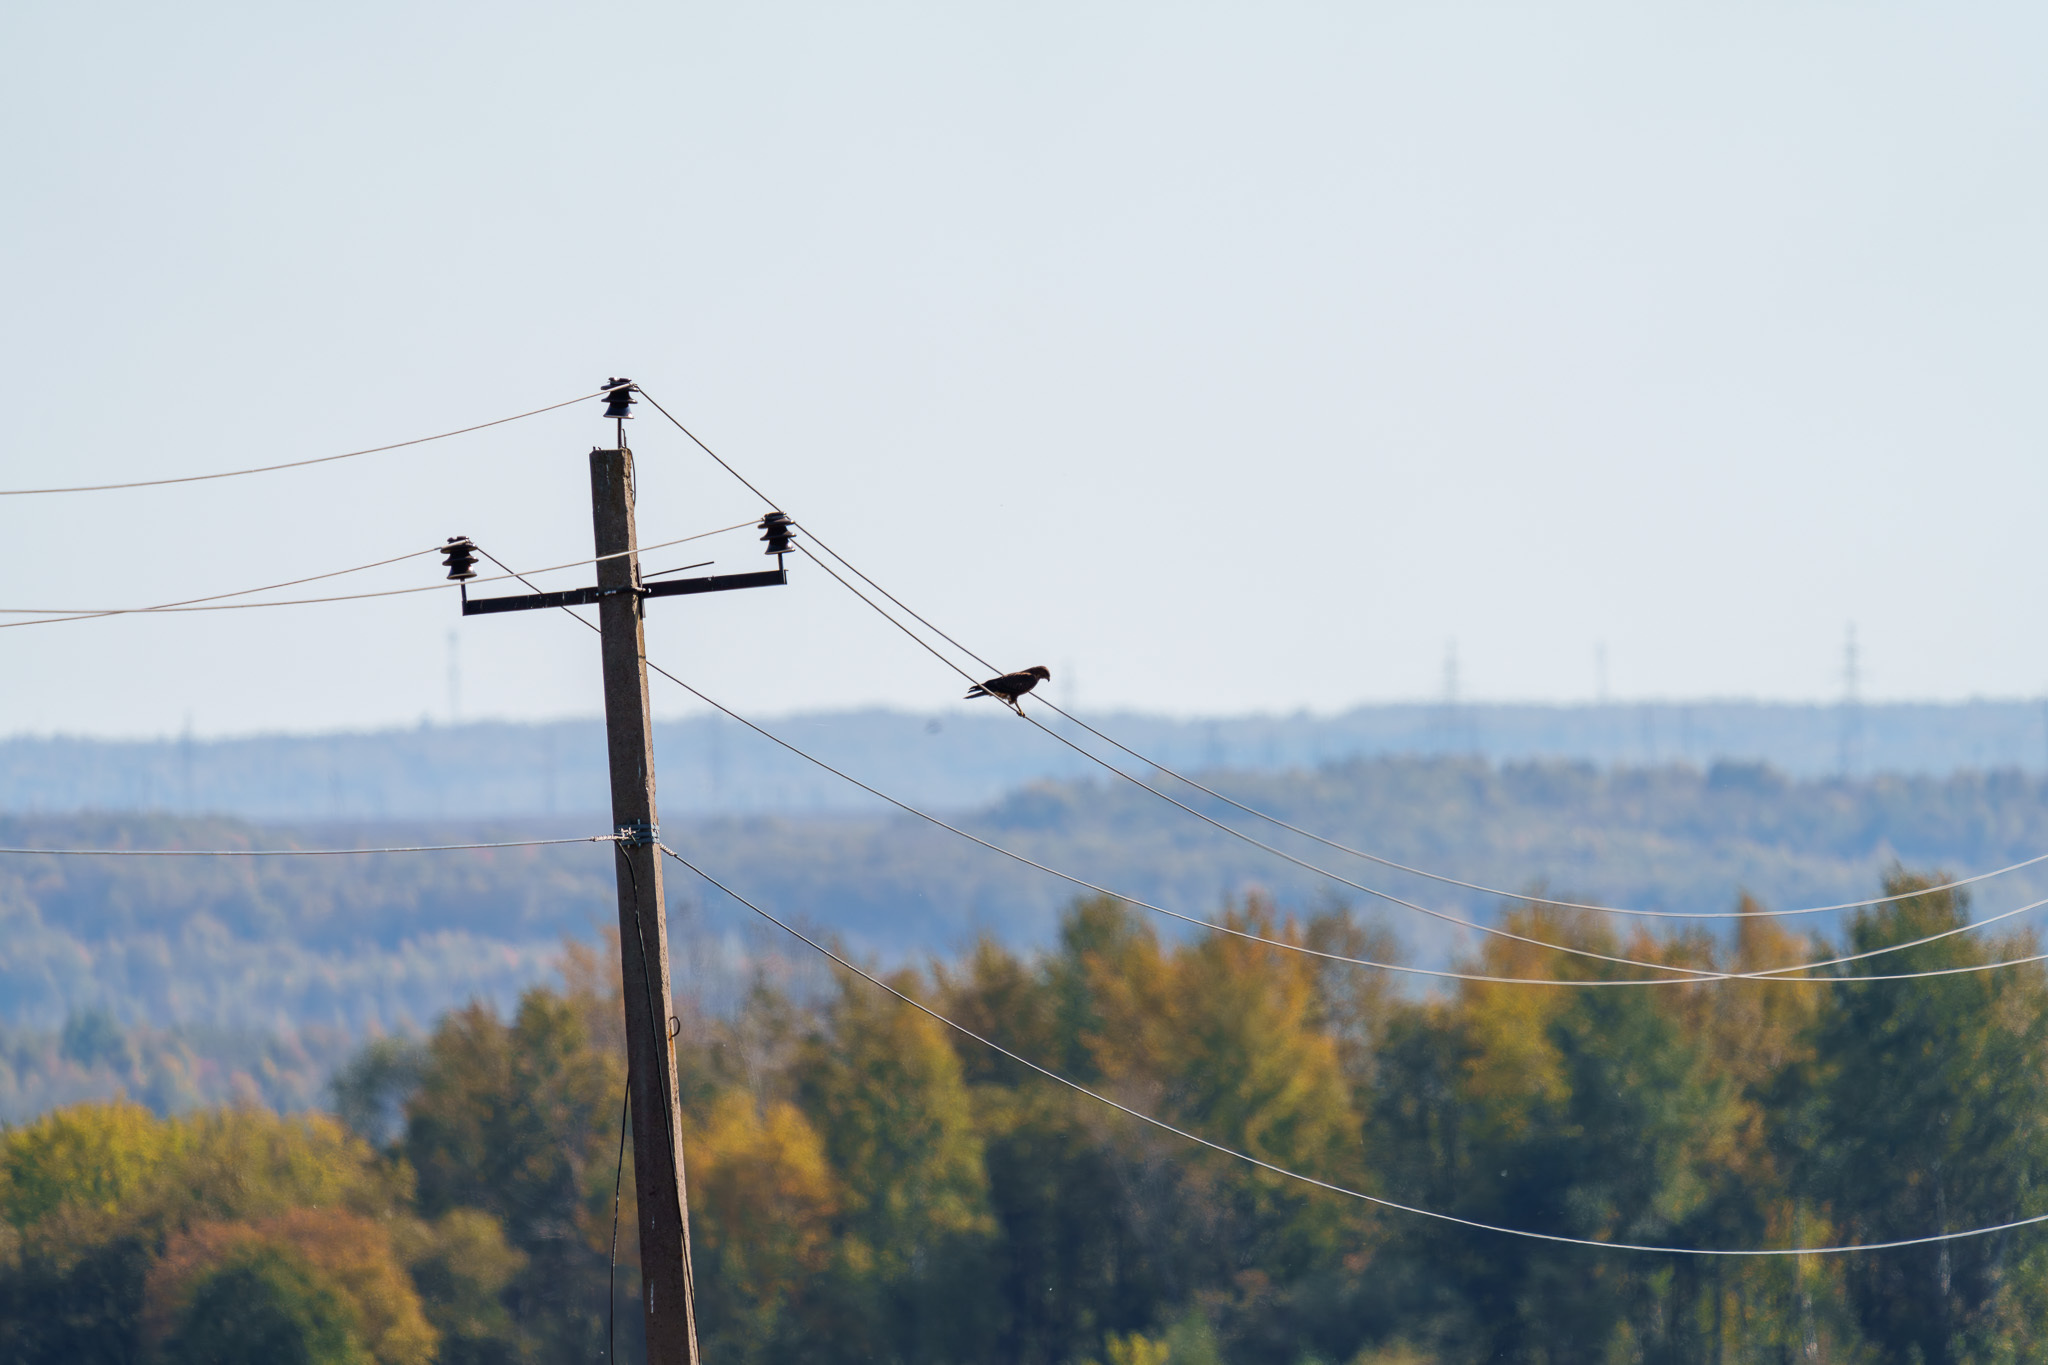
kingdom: Animalia
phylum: Chordata
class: Aves
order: Accipitriformes
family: Accipitridae
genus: Buteo
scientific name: Buteo buteo
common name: Common buzzard
